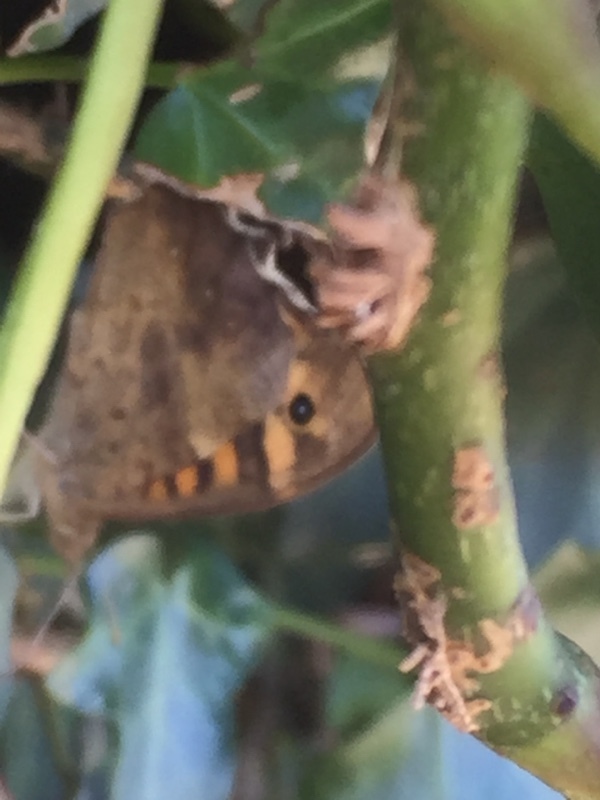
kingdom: Animalia
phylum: Arthropoda
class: Insecta
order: Lepidoptera
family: Nymphalidae
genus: Pararge
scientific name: Pararge aegeria
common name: Speckled wood
